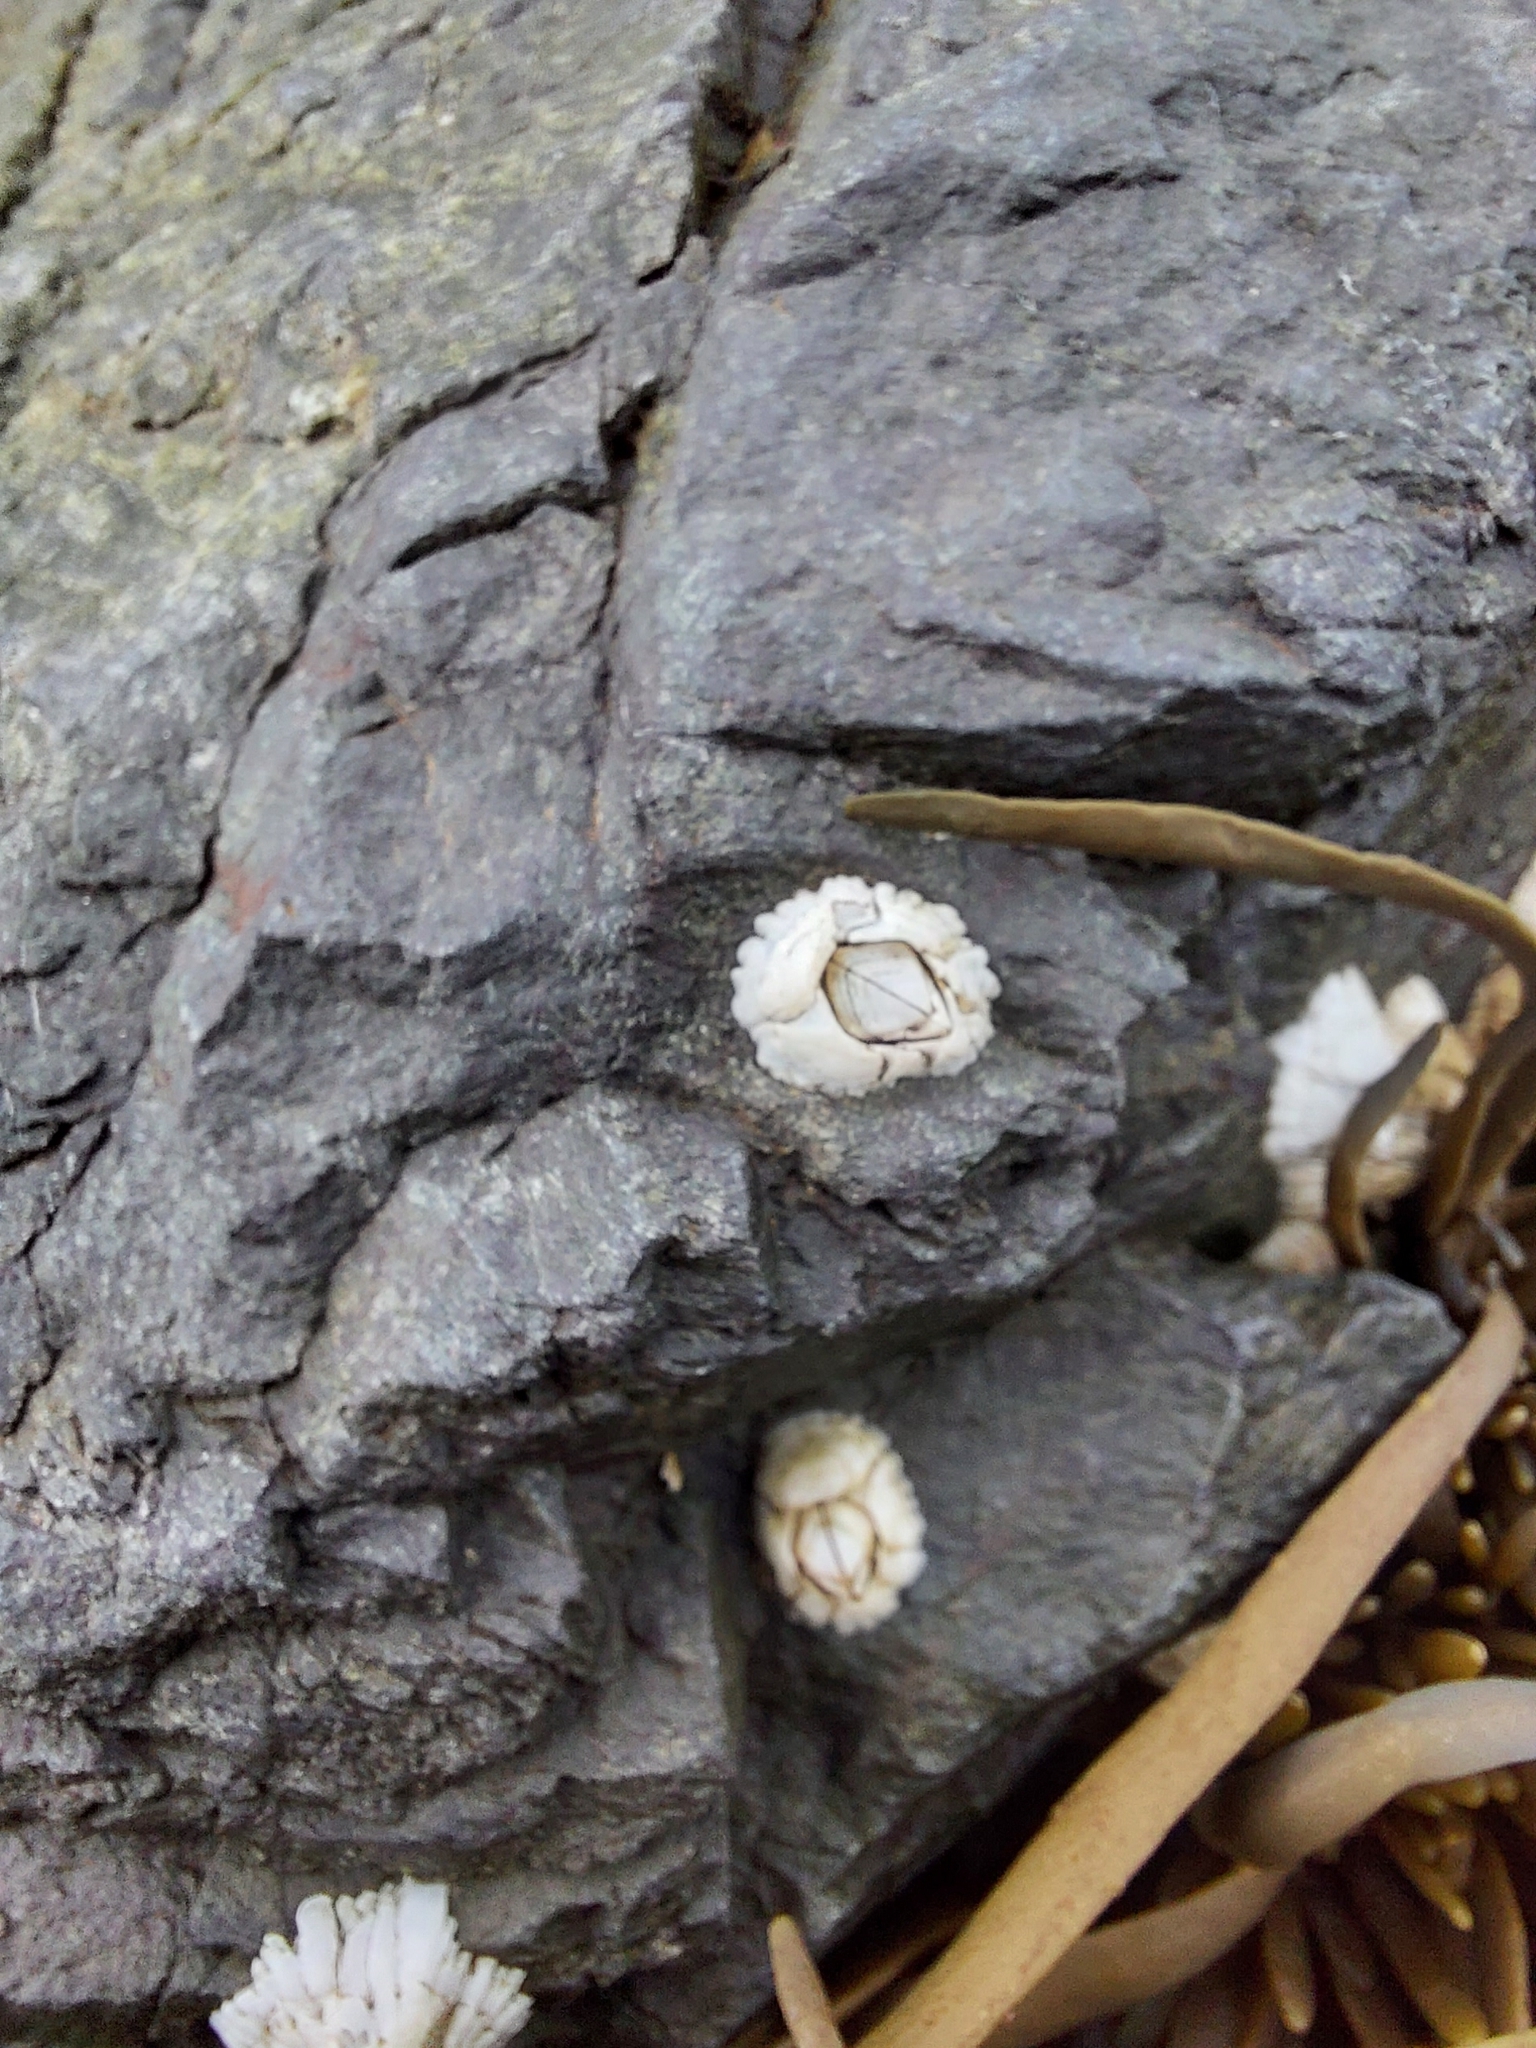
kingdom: Animalia
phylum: Arthropoda
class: Maxillopoda
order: Sessilia
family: Archaeobalanidae
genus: Semibalanus
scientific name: Semibalanus balanoides
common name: Acorn barnacle
